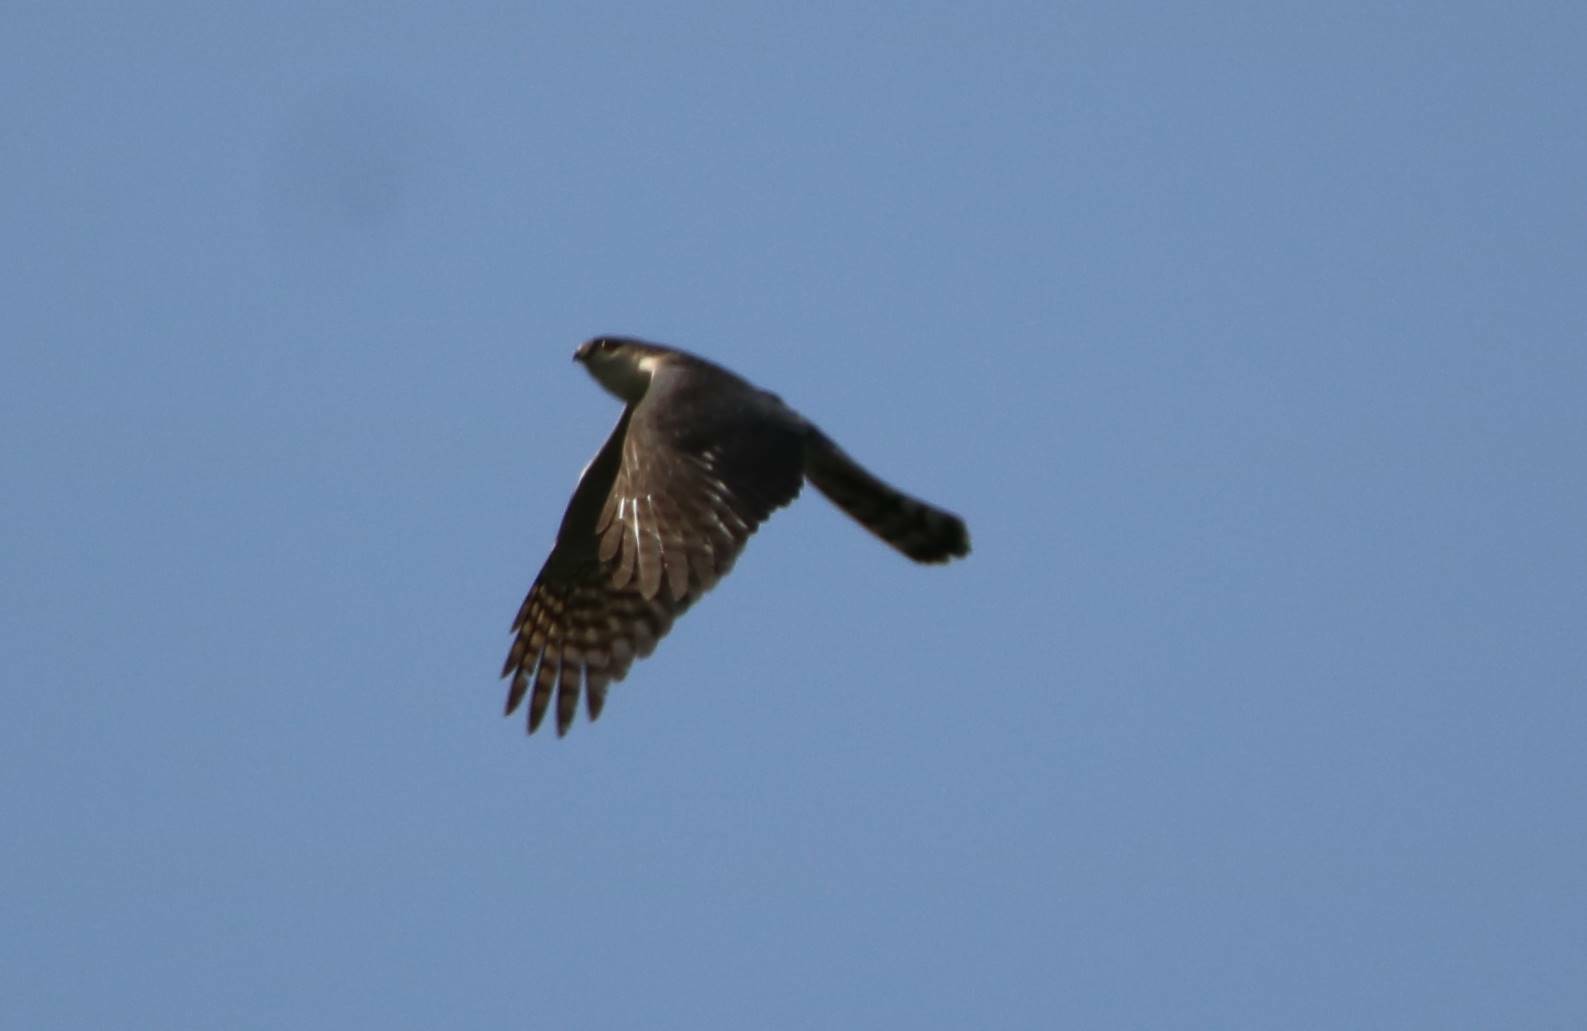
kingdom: Animalia
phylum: Chordata
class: Aves
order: Accipitriformes
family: Accipitridae
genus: Accipiter
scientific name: Accipiter nisus
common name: Eurasian sparrowhawk
